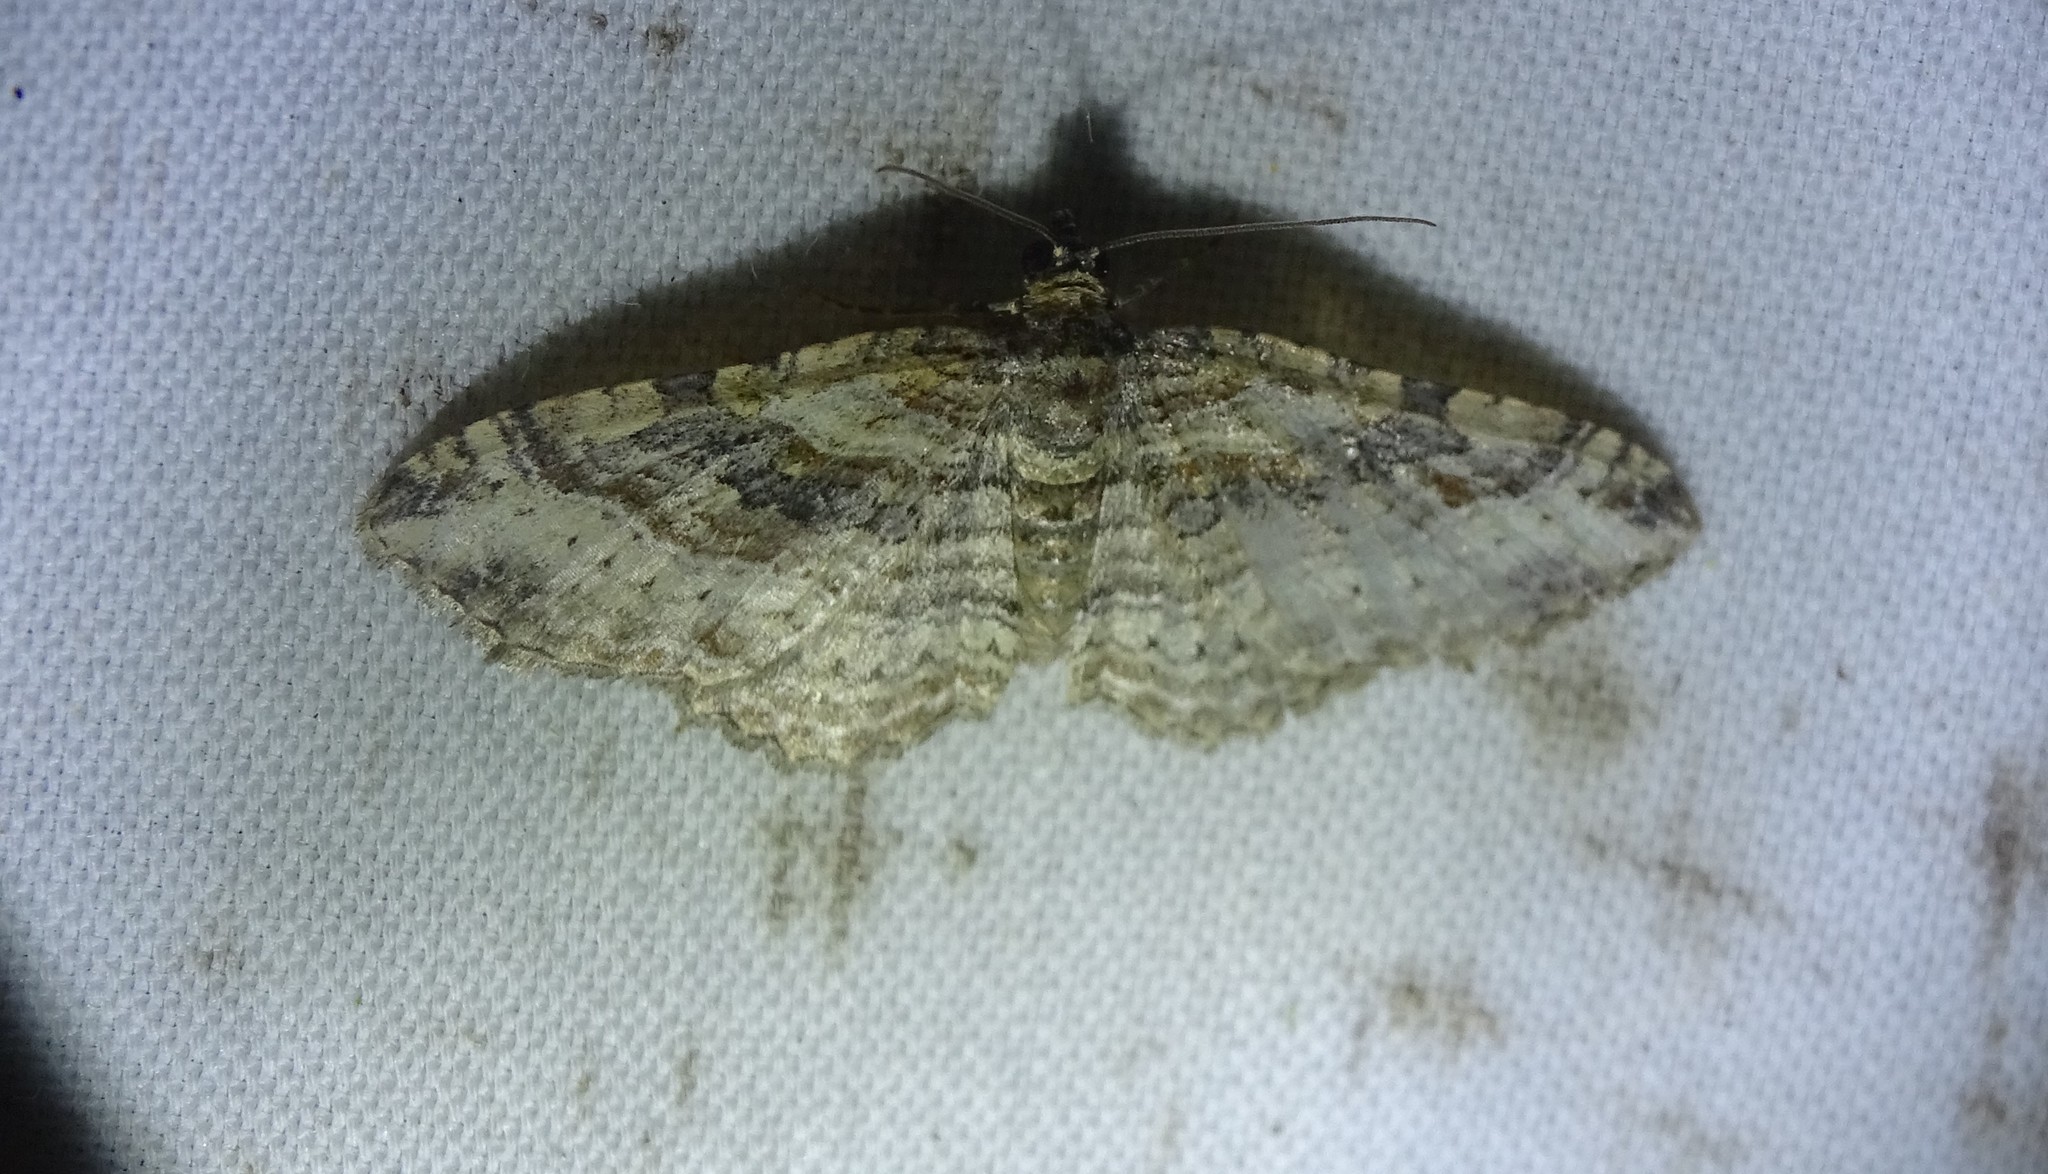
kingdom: Animalia
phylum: Arthropoda
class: Insecta
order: Lepidoptera
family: Geometridae
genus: Costaconvexa
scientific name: Costaconvexa centrostrigaria
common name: Bent-line carpet
